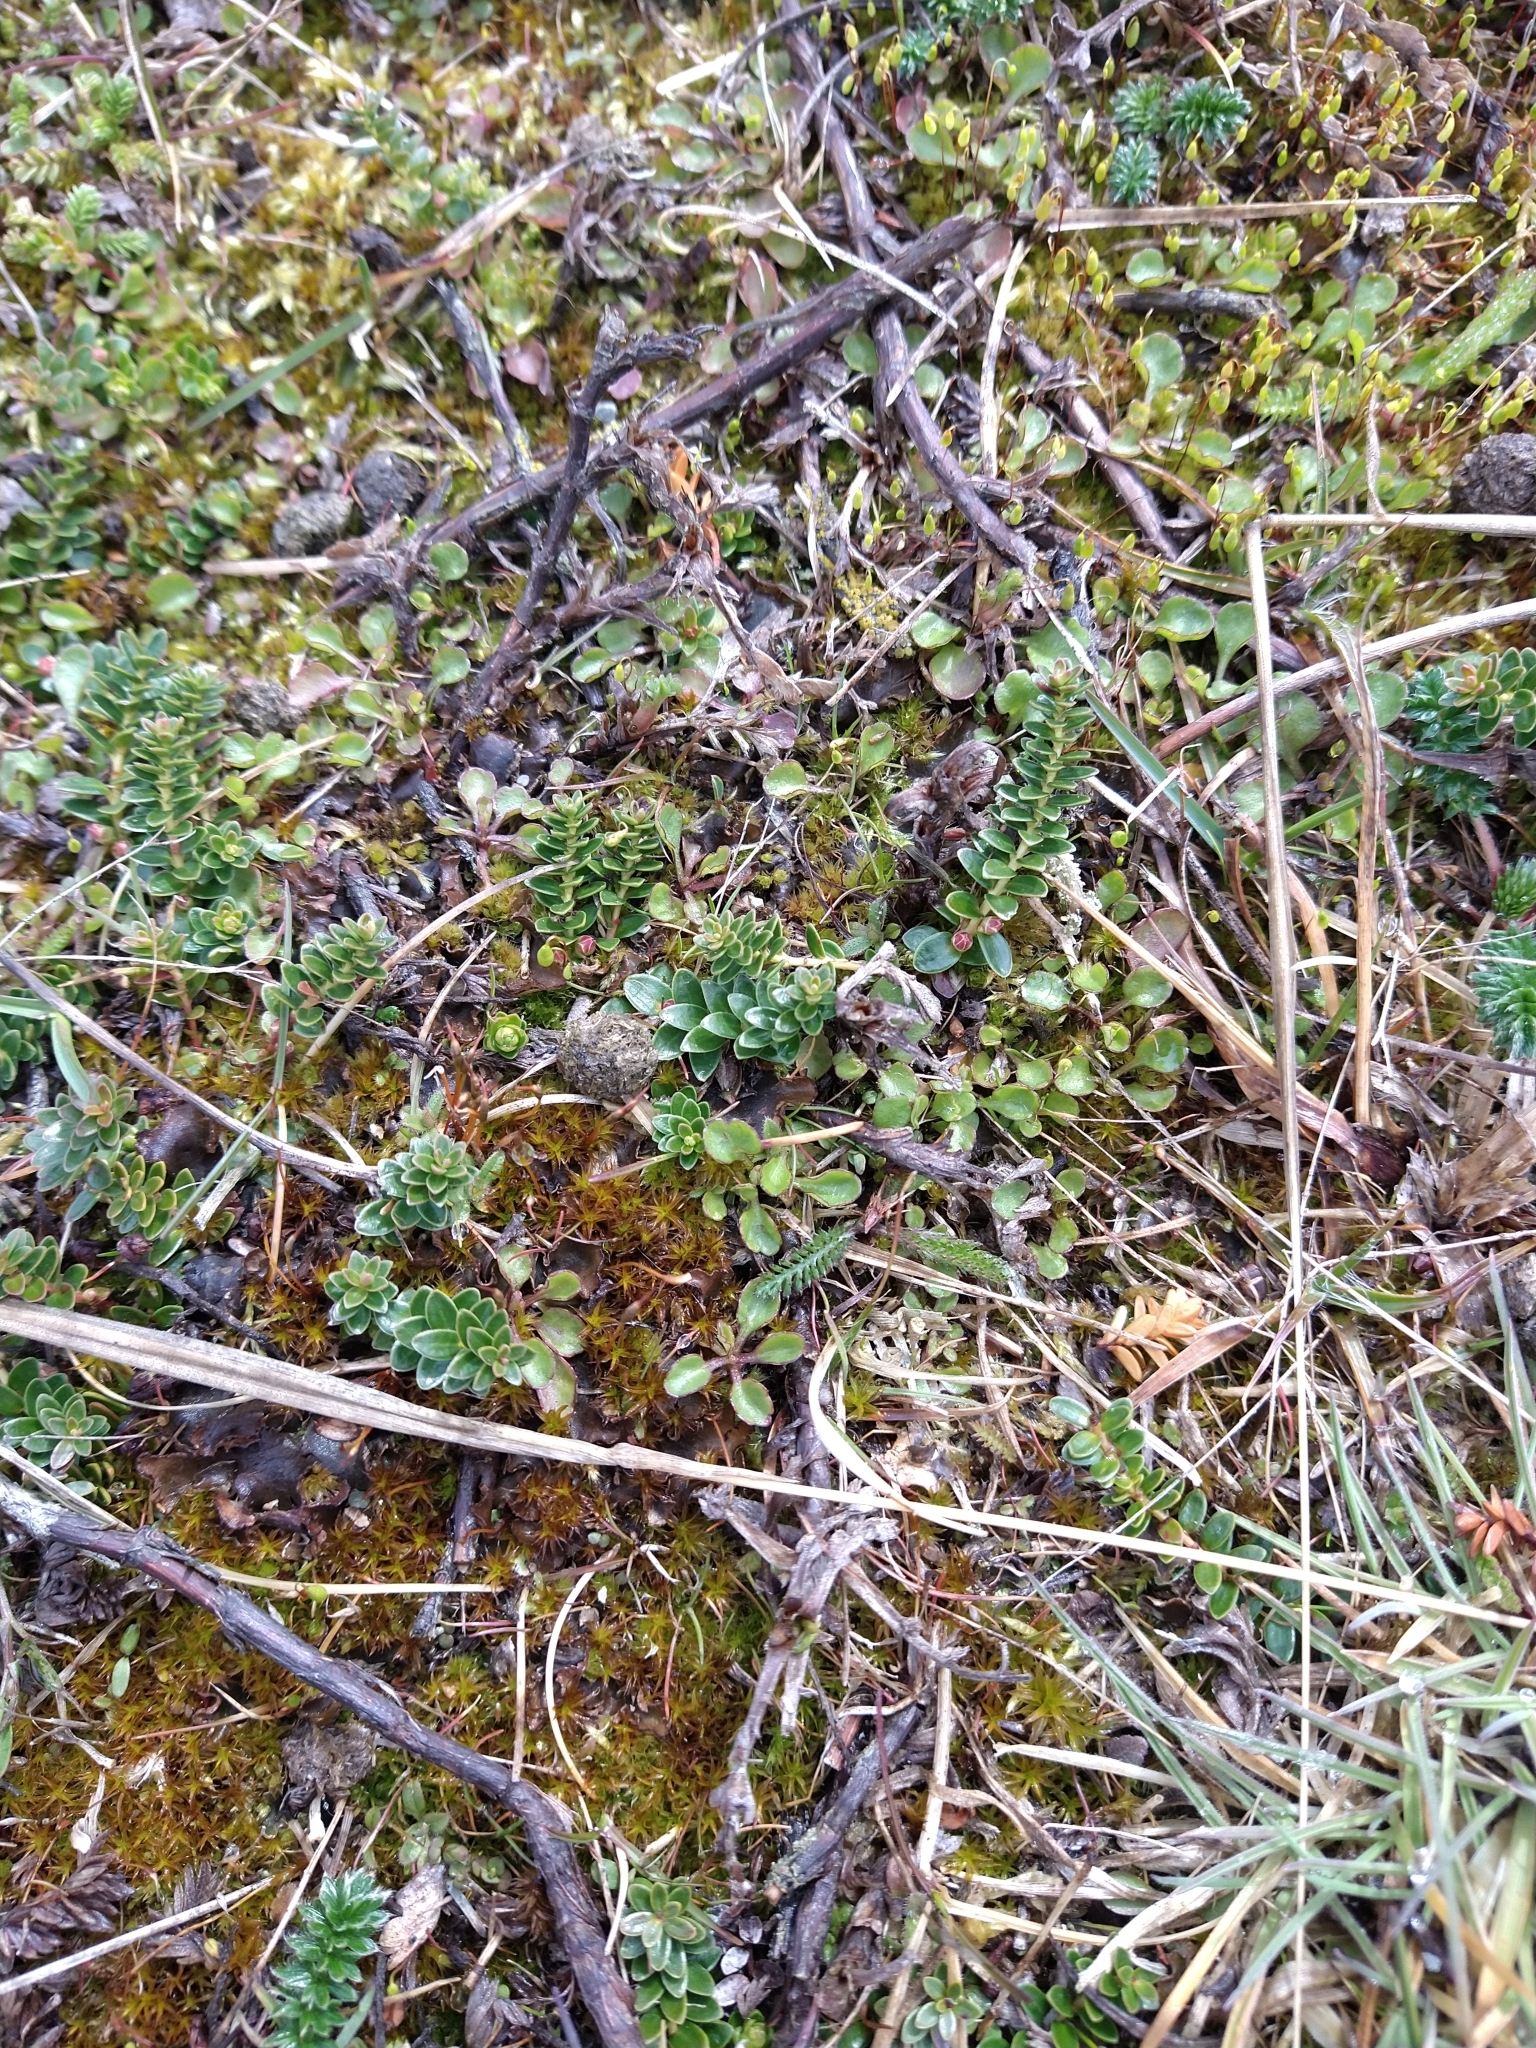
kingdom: Plantae
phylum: Tracheophyta
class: Magnoliopsida
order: Ericales
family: Ericaceae
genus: Empetrum
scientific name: Empetrum rubrum
